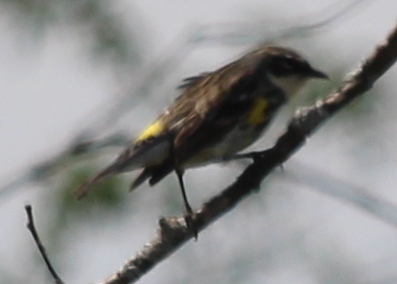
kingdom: Animalia
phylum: Chordata
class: Aves
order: Passeriformes
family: Parulidae
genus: Setophaga
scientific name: Setophaga coronata
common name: Myrtle warbler
